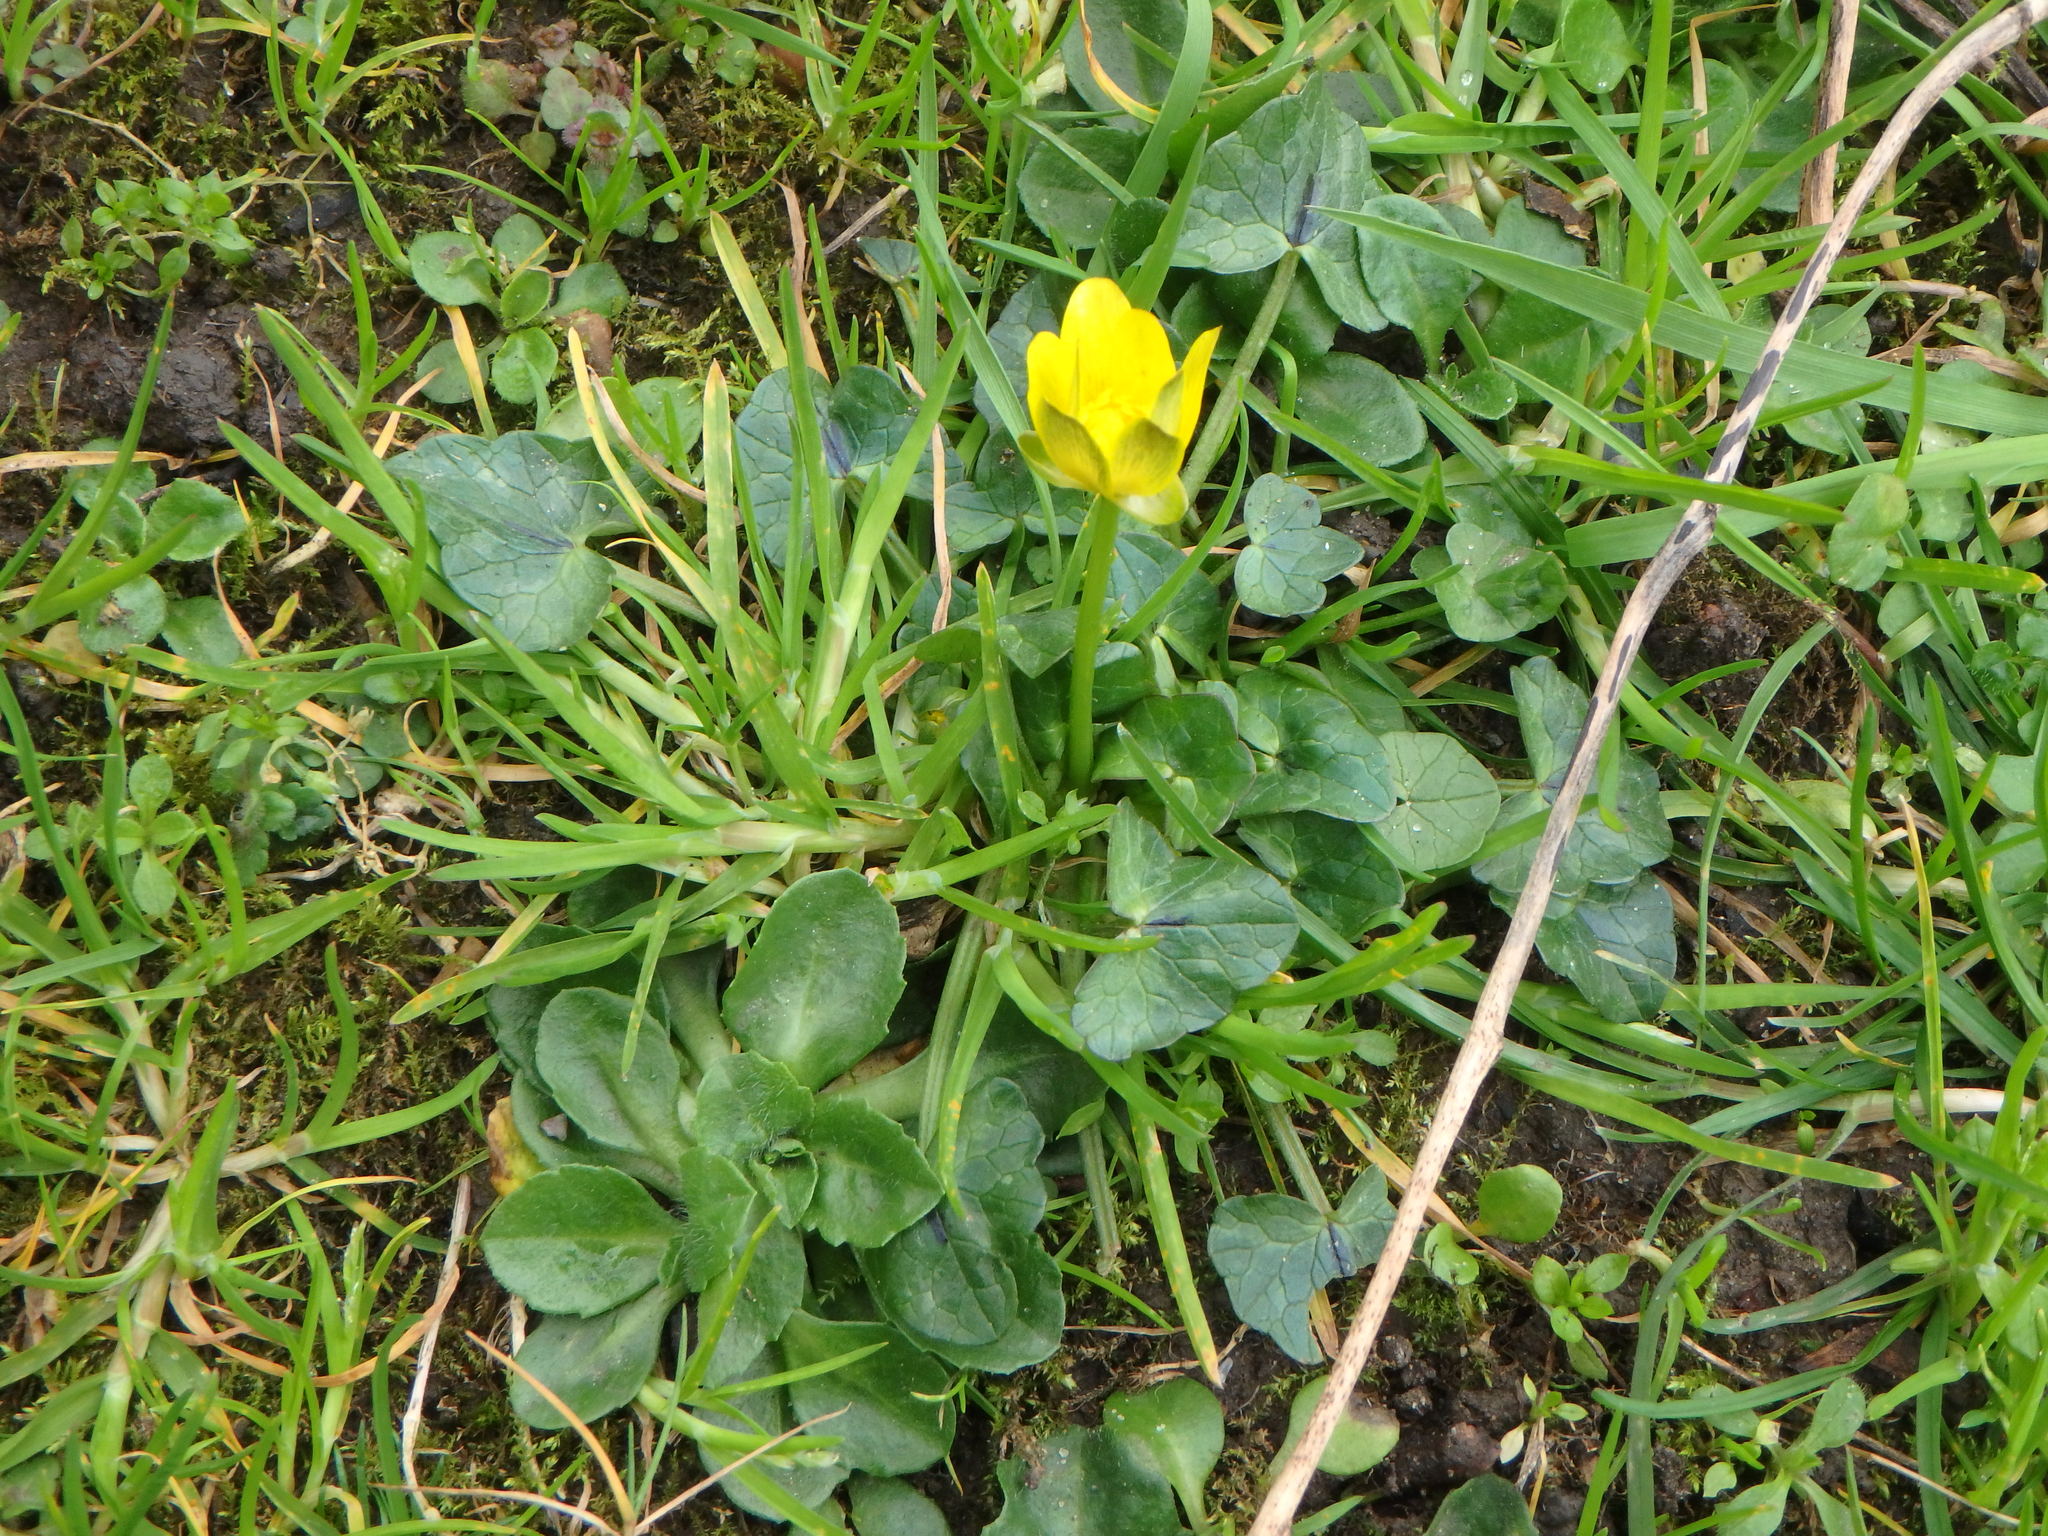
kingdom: Plantae
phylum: Tracheophyta
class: Magnoliopsida
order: Ranunculales
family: Ranunculaceae
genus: Ficaria
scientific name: Ficaria verna
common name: Lesser celandine
